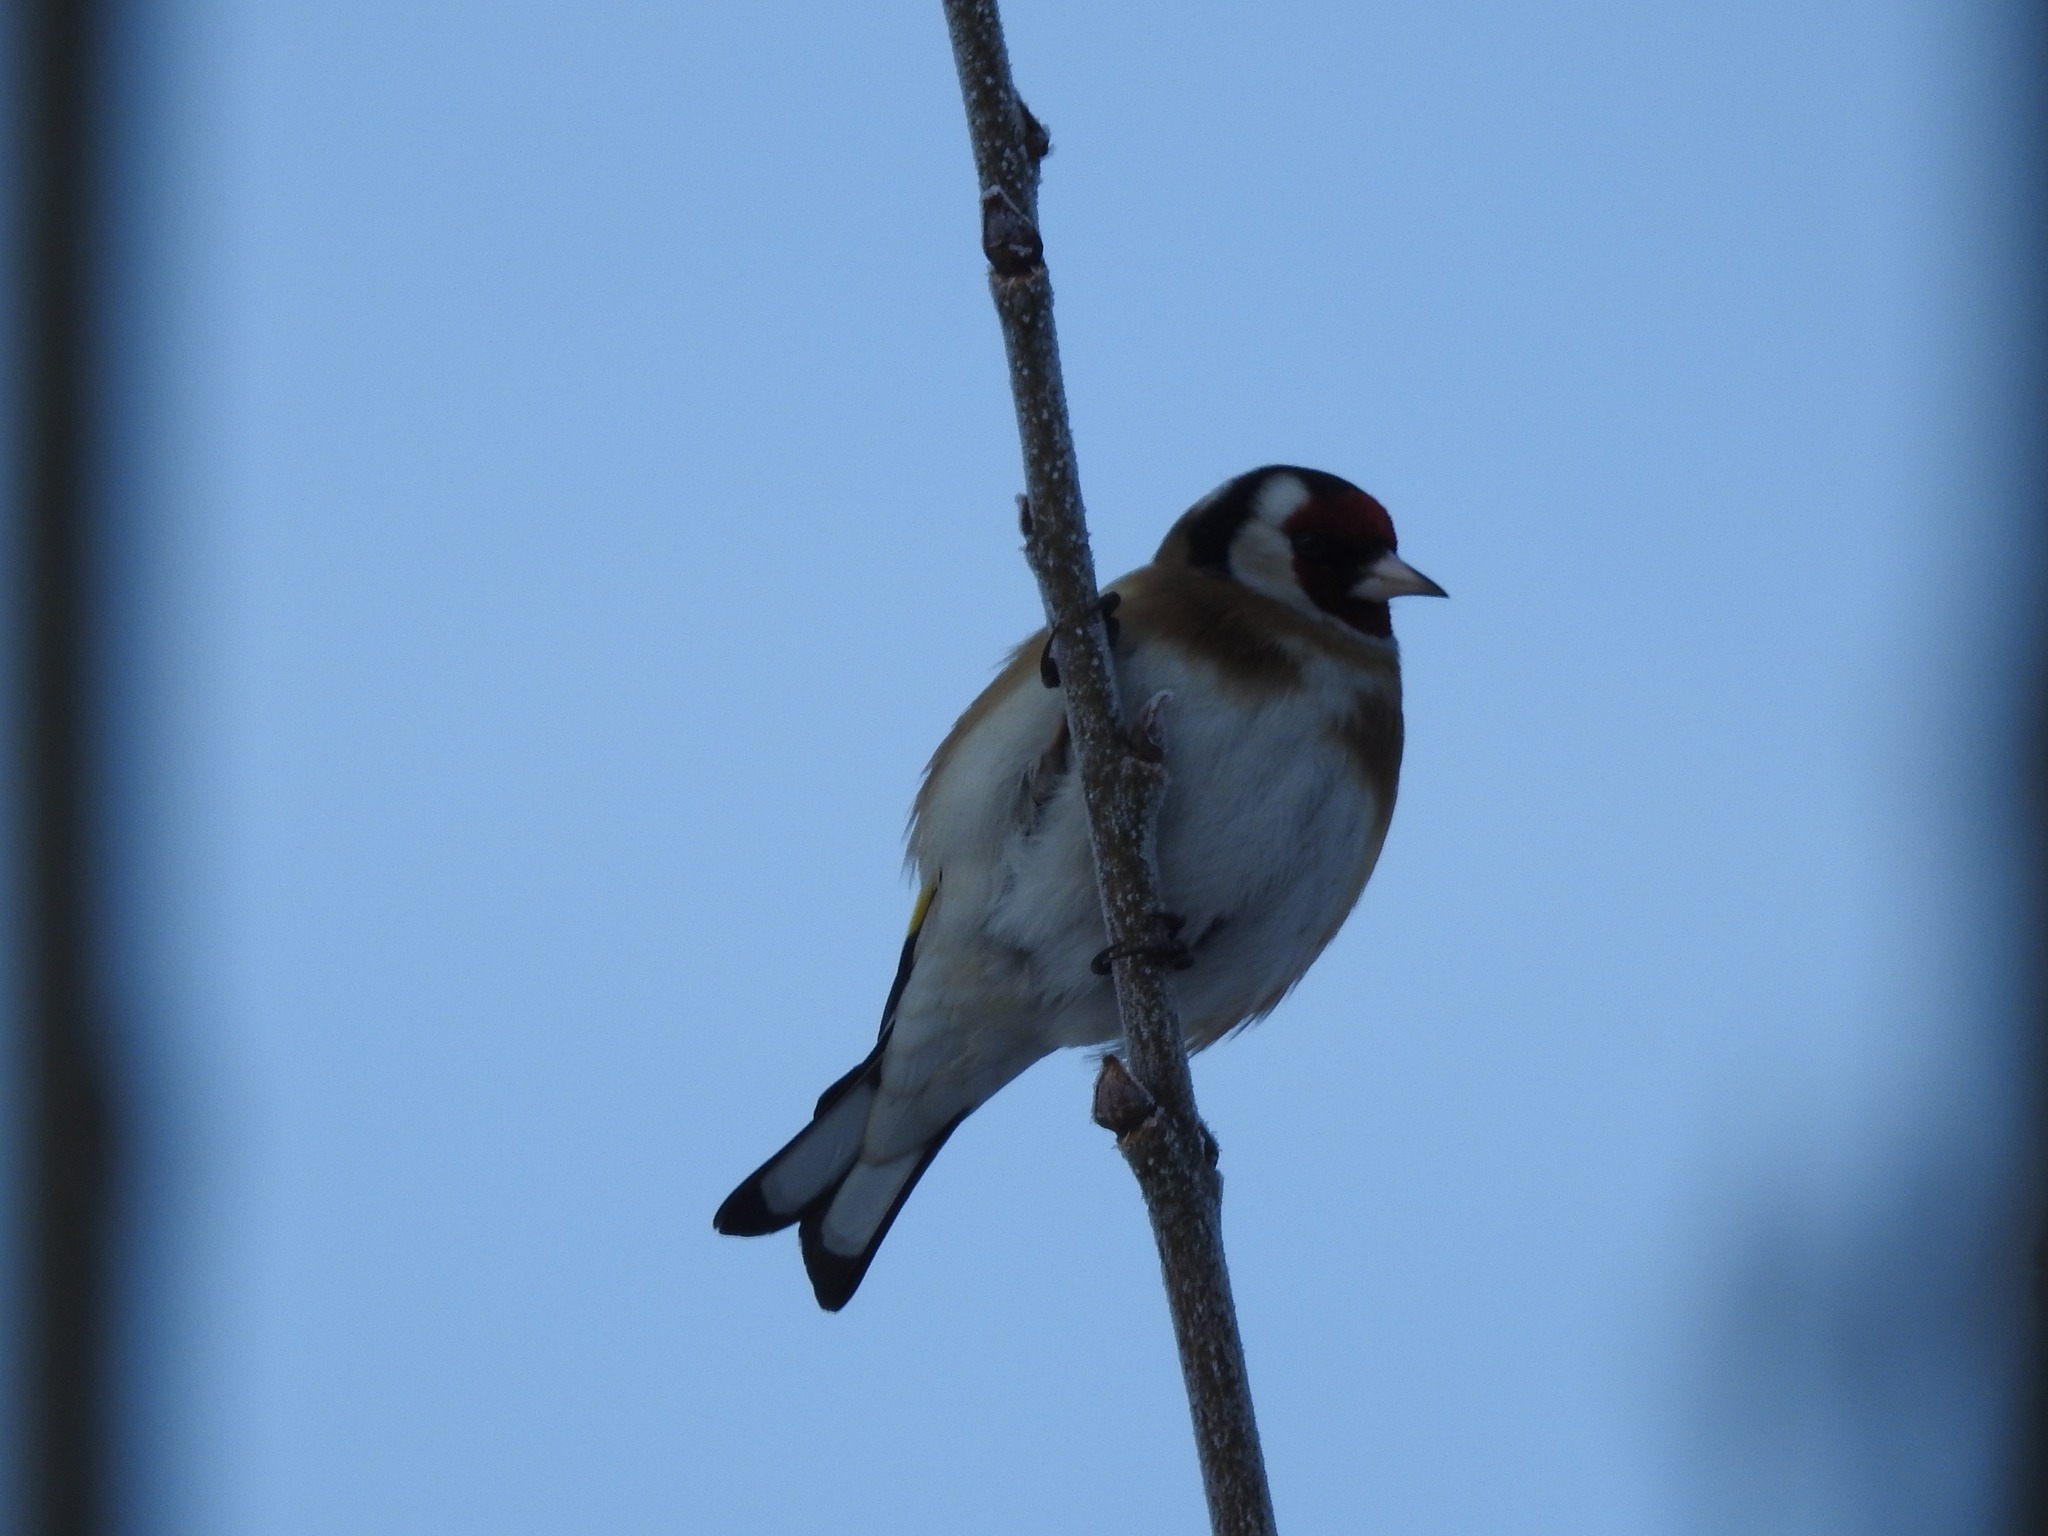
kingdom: Animalia
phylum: Chordata
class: Aves
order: Passeriformes
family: Fringillidae
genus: Carduelis
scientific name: Carduelis carduelis
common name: European goldfinch
